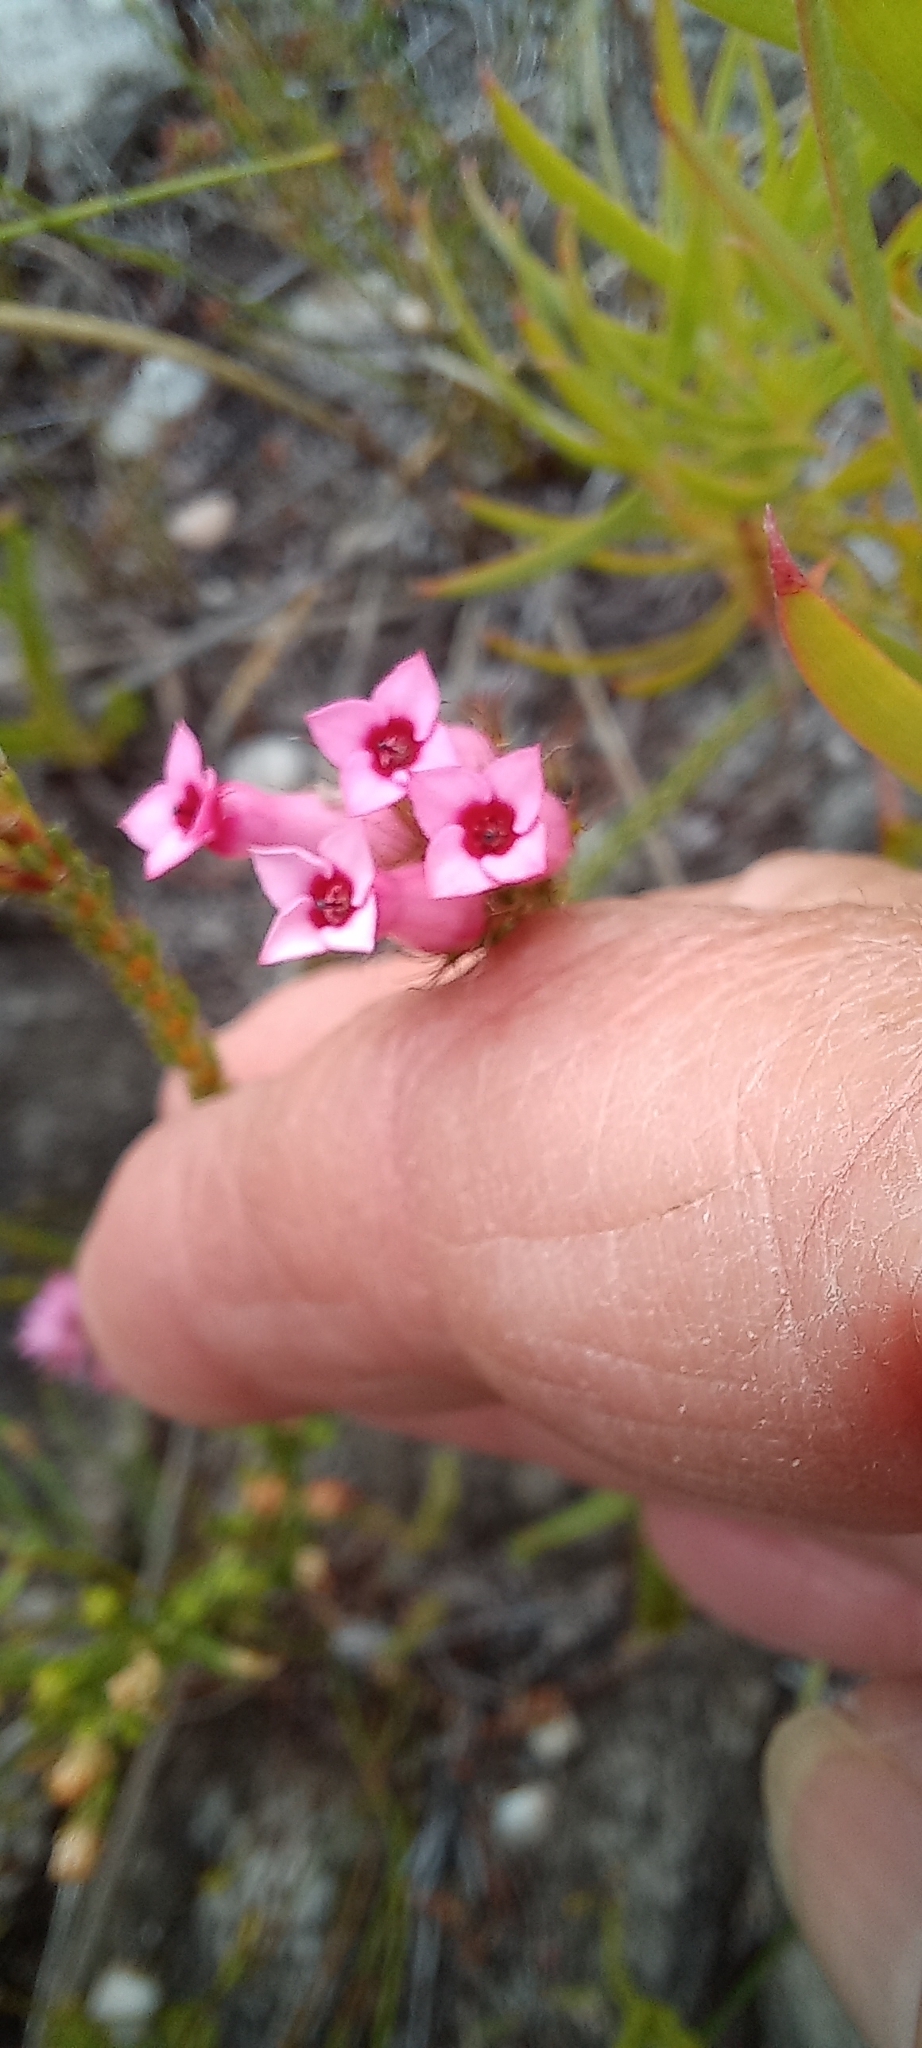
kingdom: Plantae
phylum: Tracheophyta
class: Magnoliopsida
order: Ericales
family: Ericaceae
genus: Erica
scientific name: Erica gysbertii
